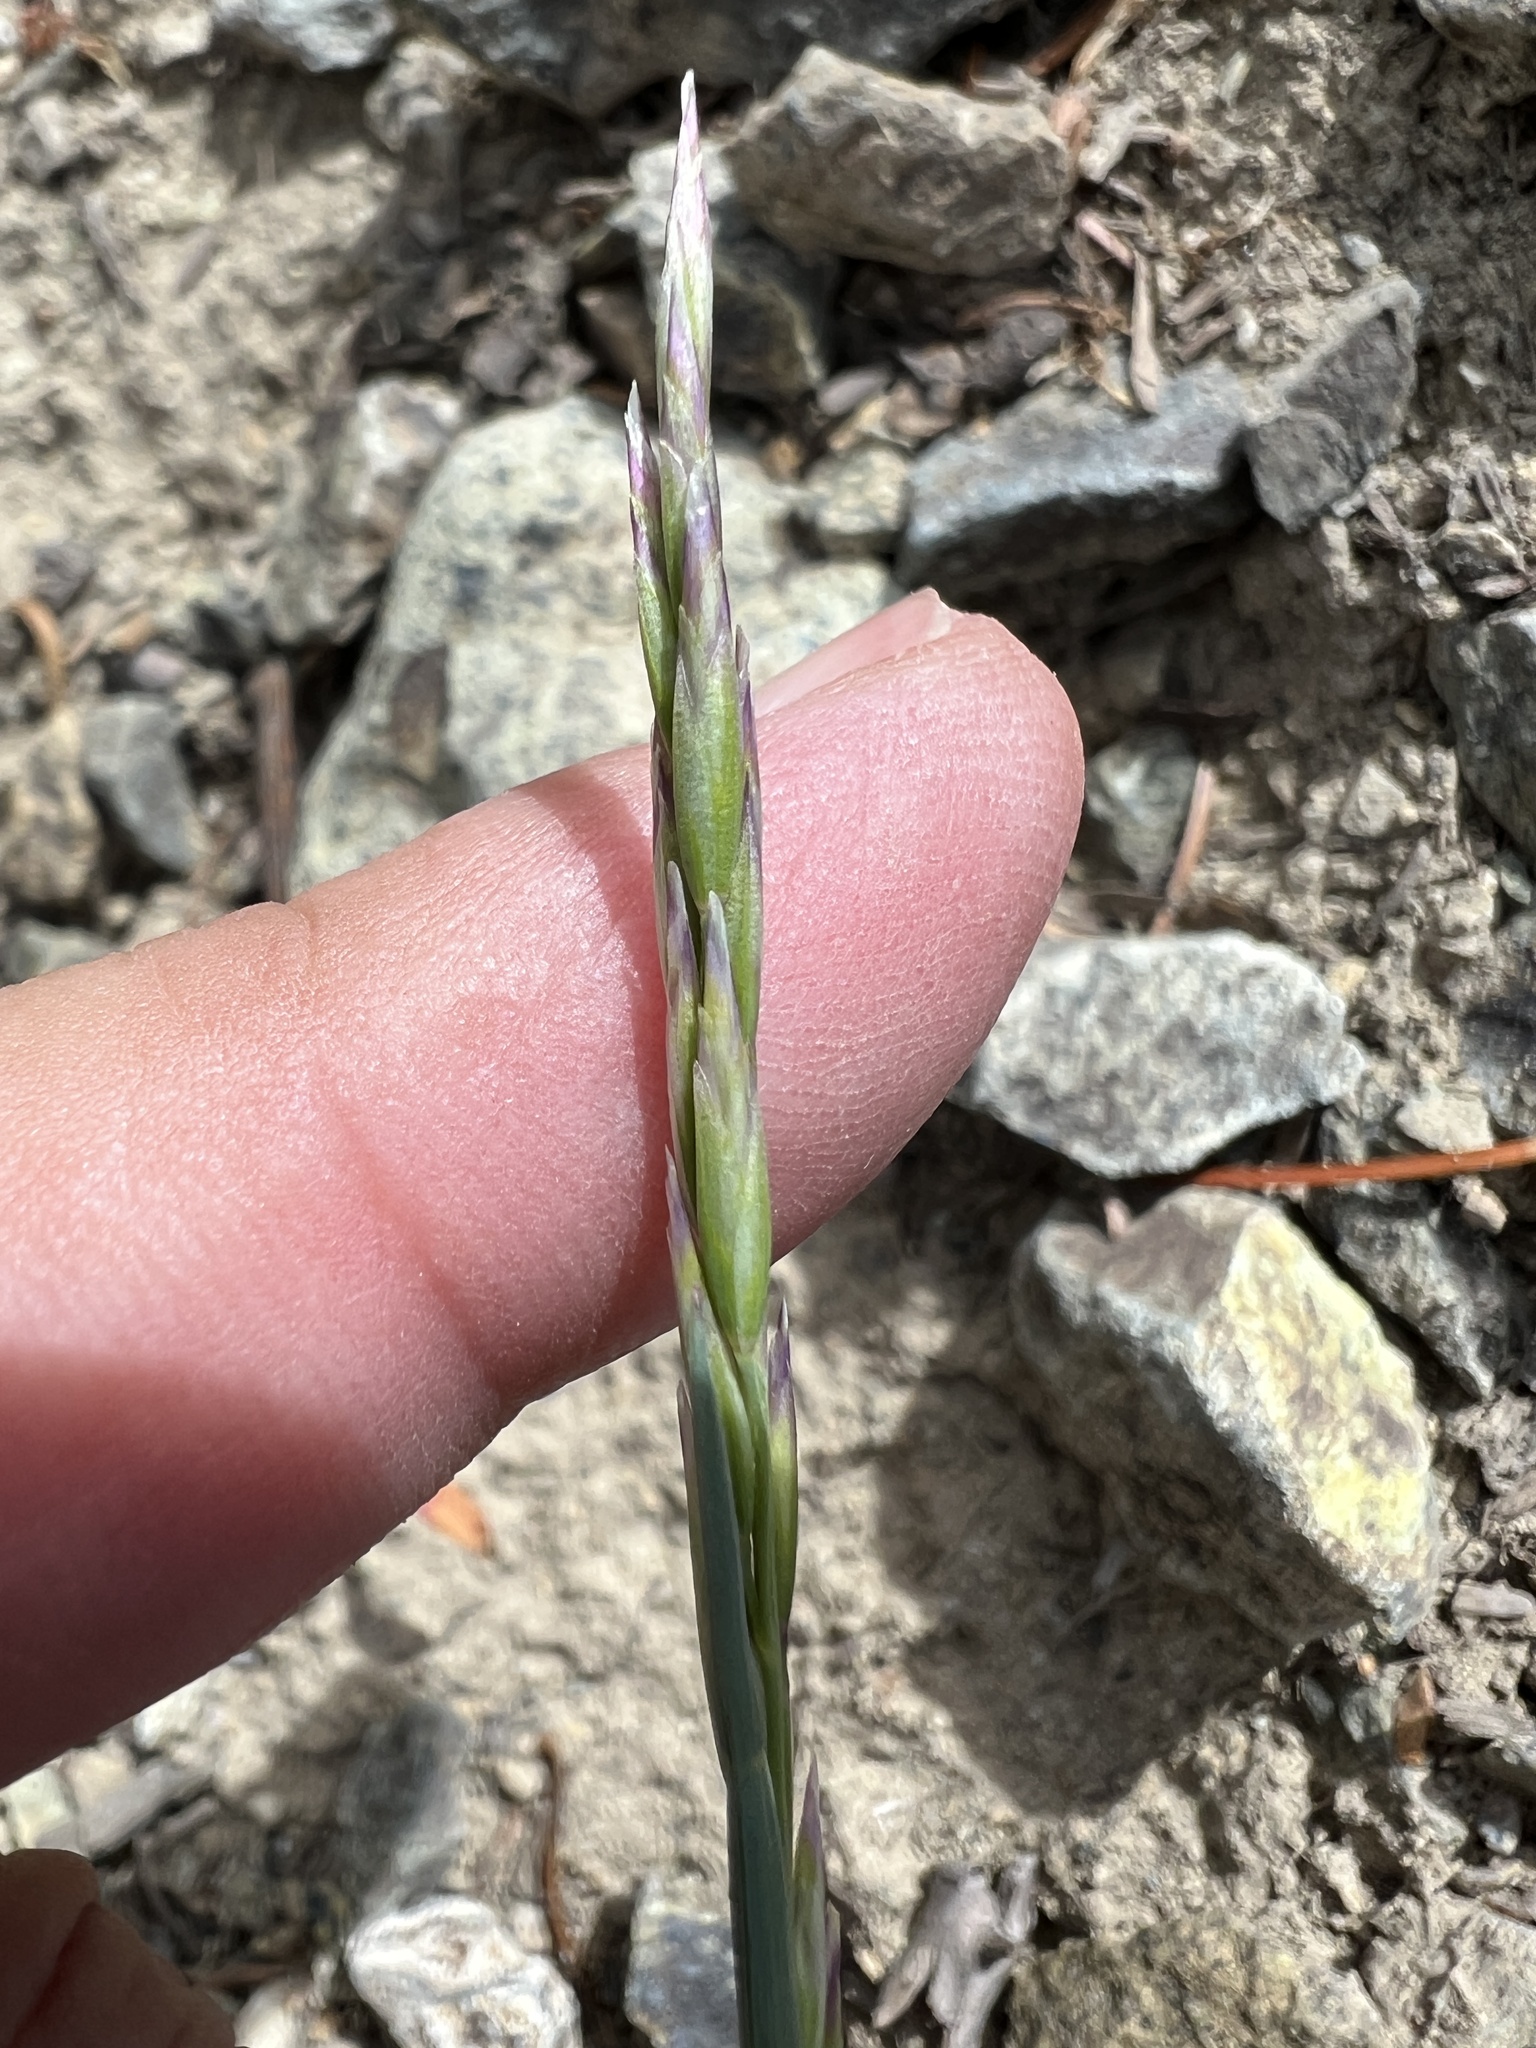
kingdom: Plantae
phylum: Tracheophyta
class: Liliopsida
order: Poales
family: Poaceae
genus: Poa
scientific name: Poa curtifolia
